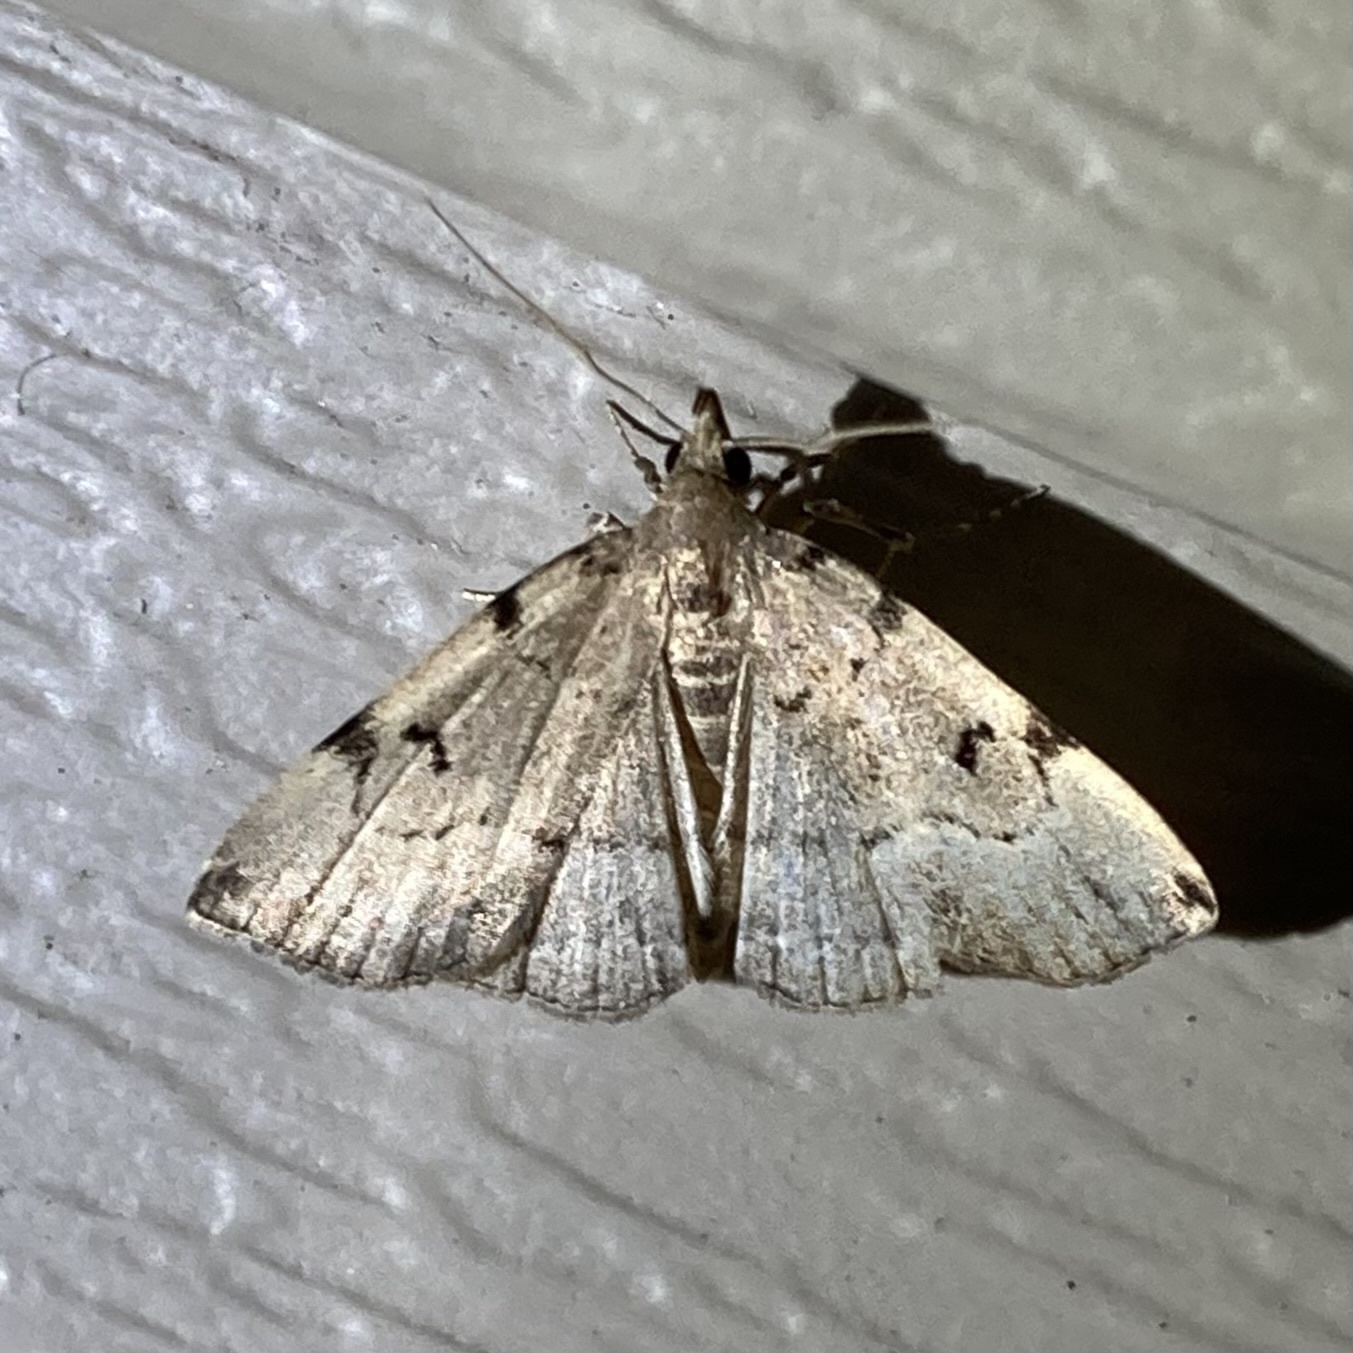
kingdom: Animalia
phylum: Arthropoda
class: Insecta
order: Lepidoptera
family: Erebidae
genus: Zanclognatha
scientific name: Zanclognatha lituralis
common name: Lettered fan-foot
